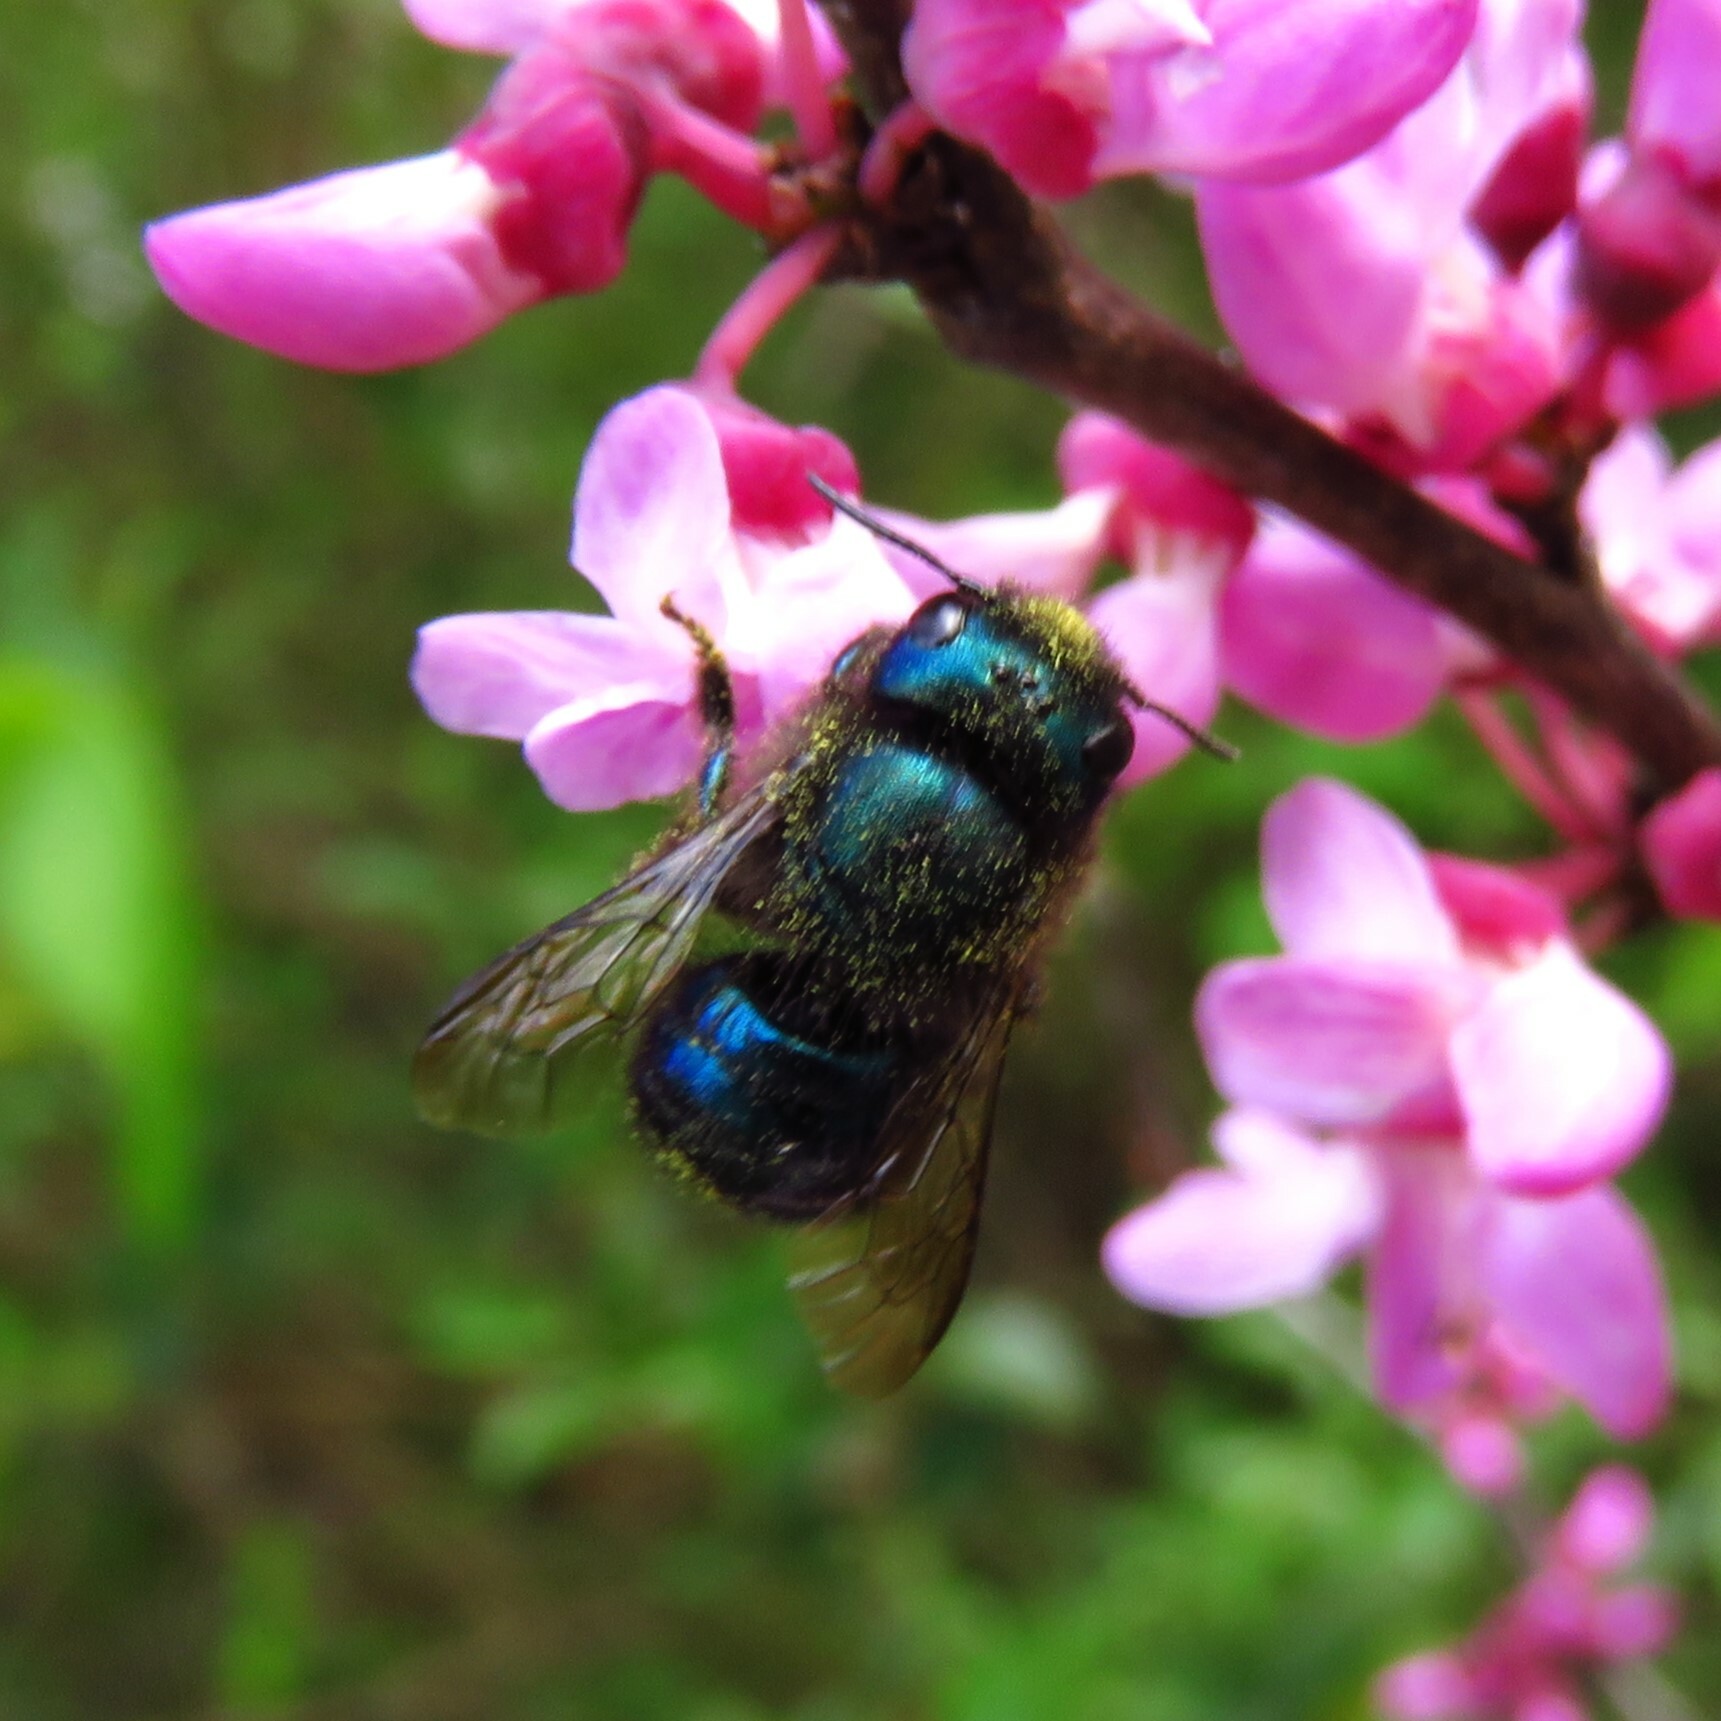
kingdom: Animalia
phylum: Arthropoda
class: Insecta
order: Hymenoptera
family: Megachilidae
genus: Osmia
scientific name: Osmia ribifloris
